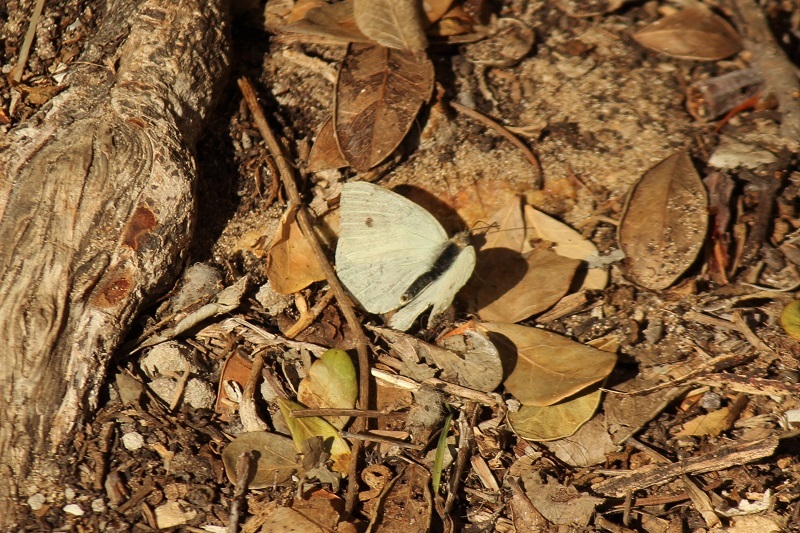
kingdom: Animalia
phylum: Arthropoda
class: Insecta
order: Lepidoptera
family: Pieridae
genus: Dixeia
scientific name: Dixeia charina
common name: African small white
